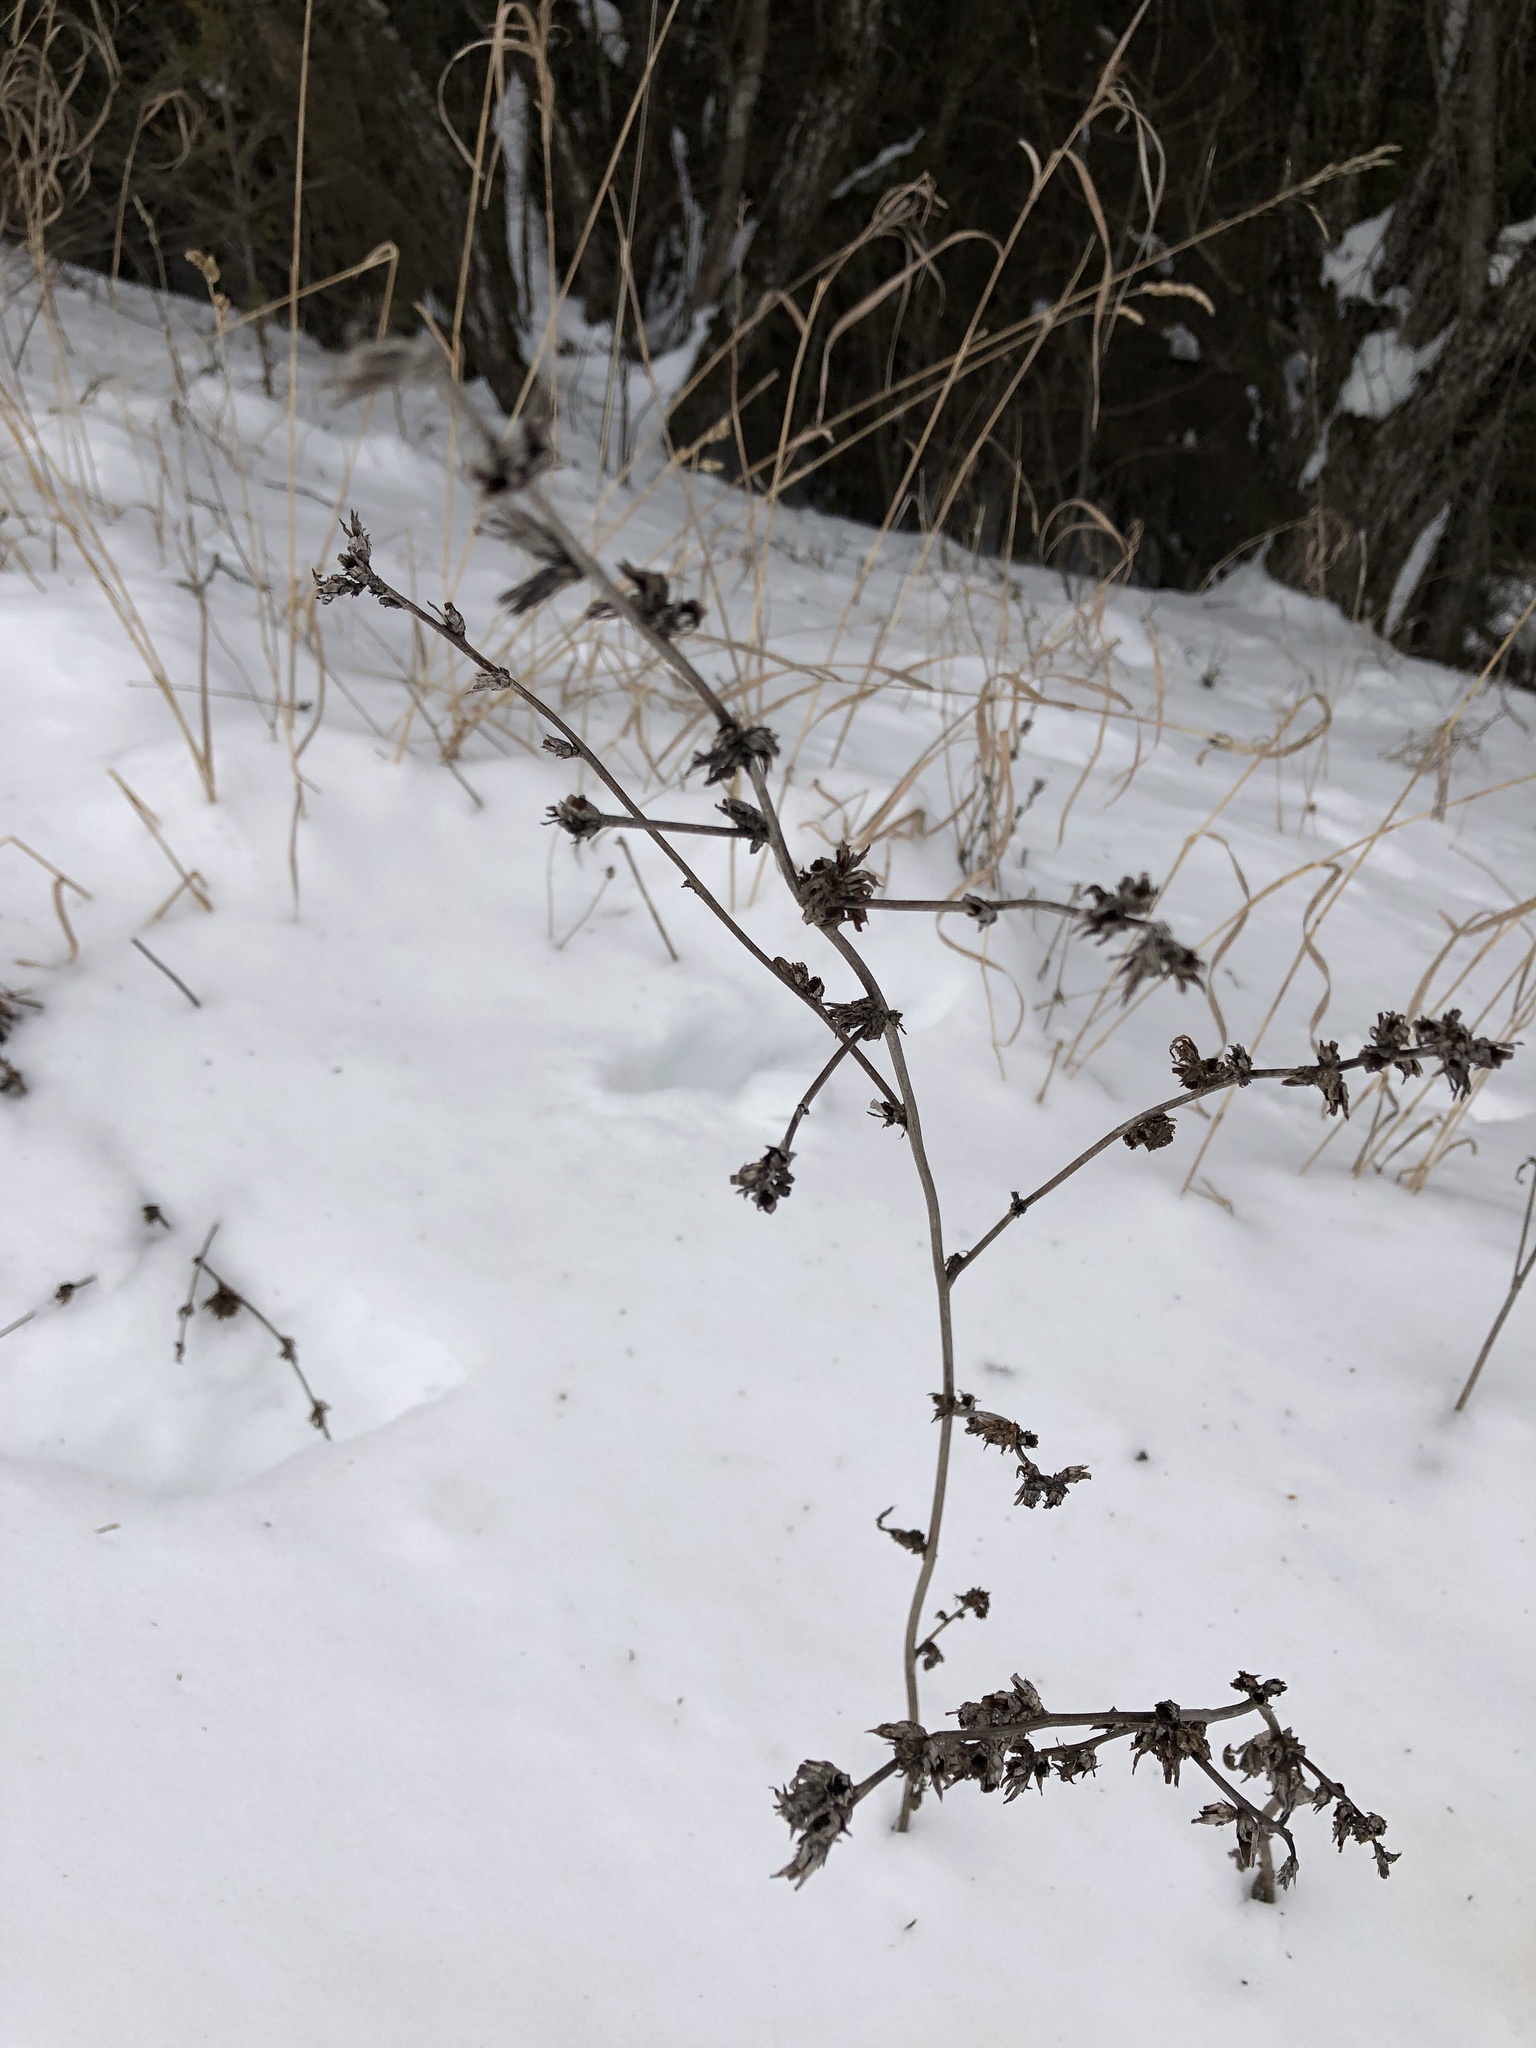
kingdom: Plantae
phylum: Tracheophyta
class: Magnoliopsida
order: Asterales
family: Asteraceae
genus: Cichorium
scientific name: Cichorium intybus
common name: Chicory
